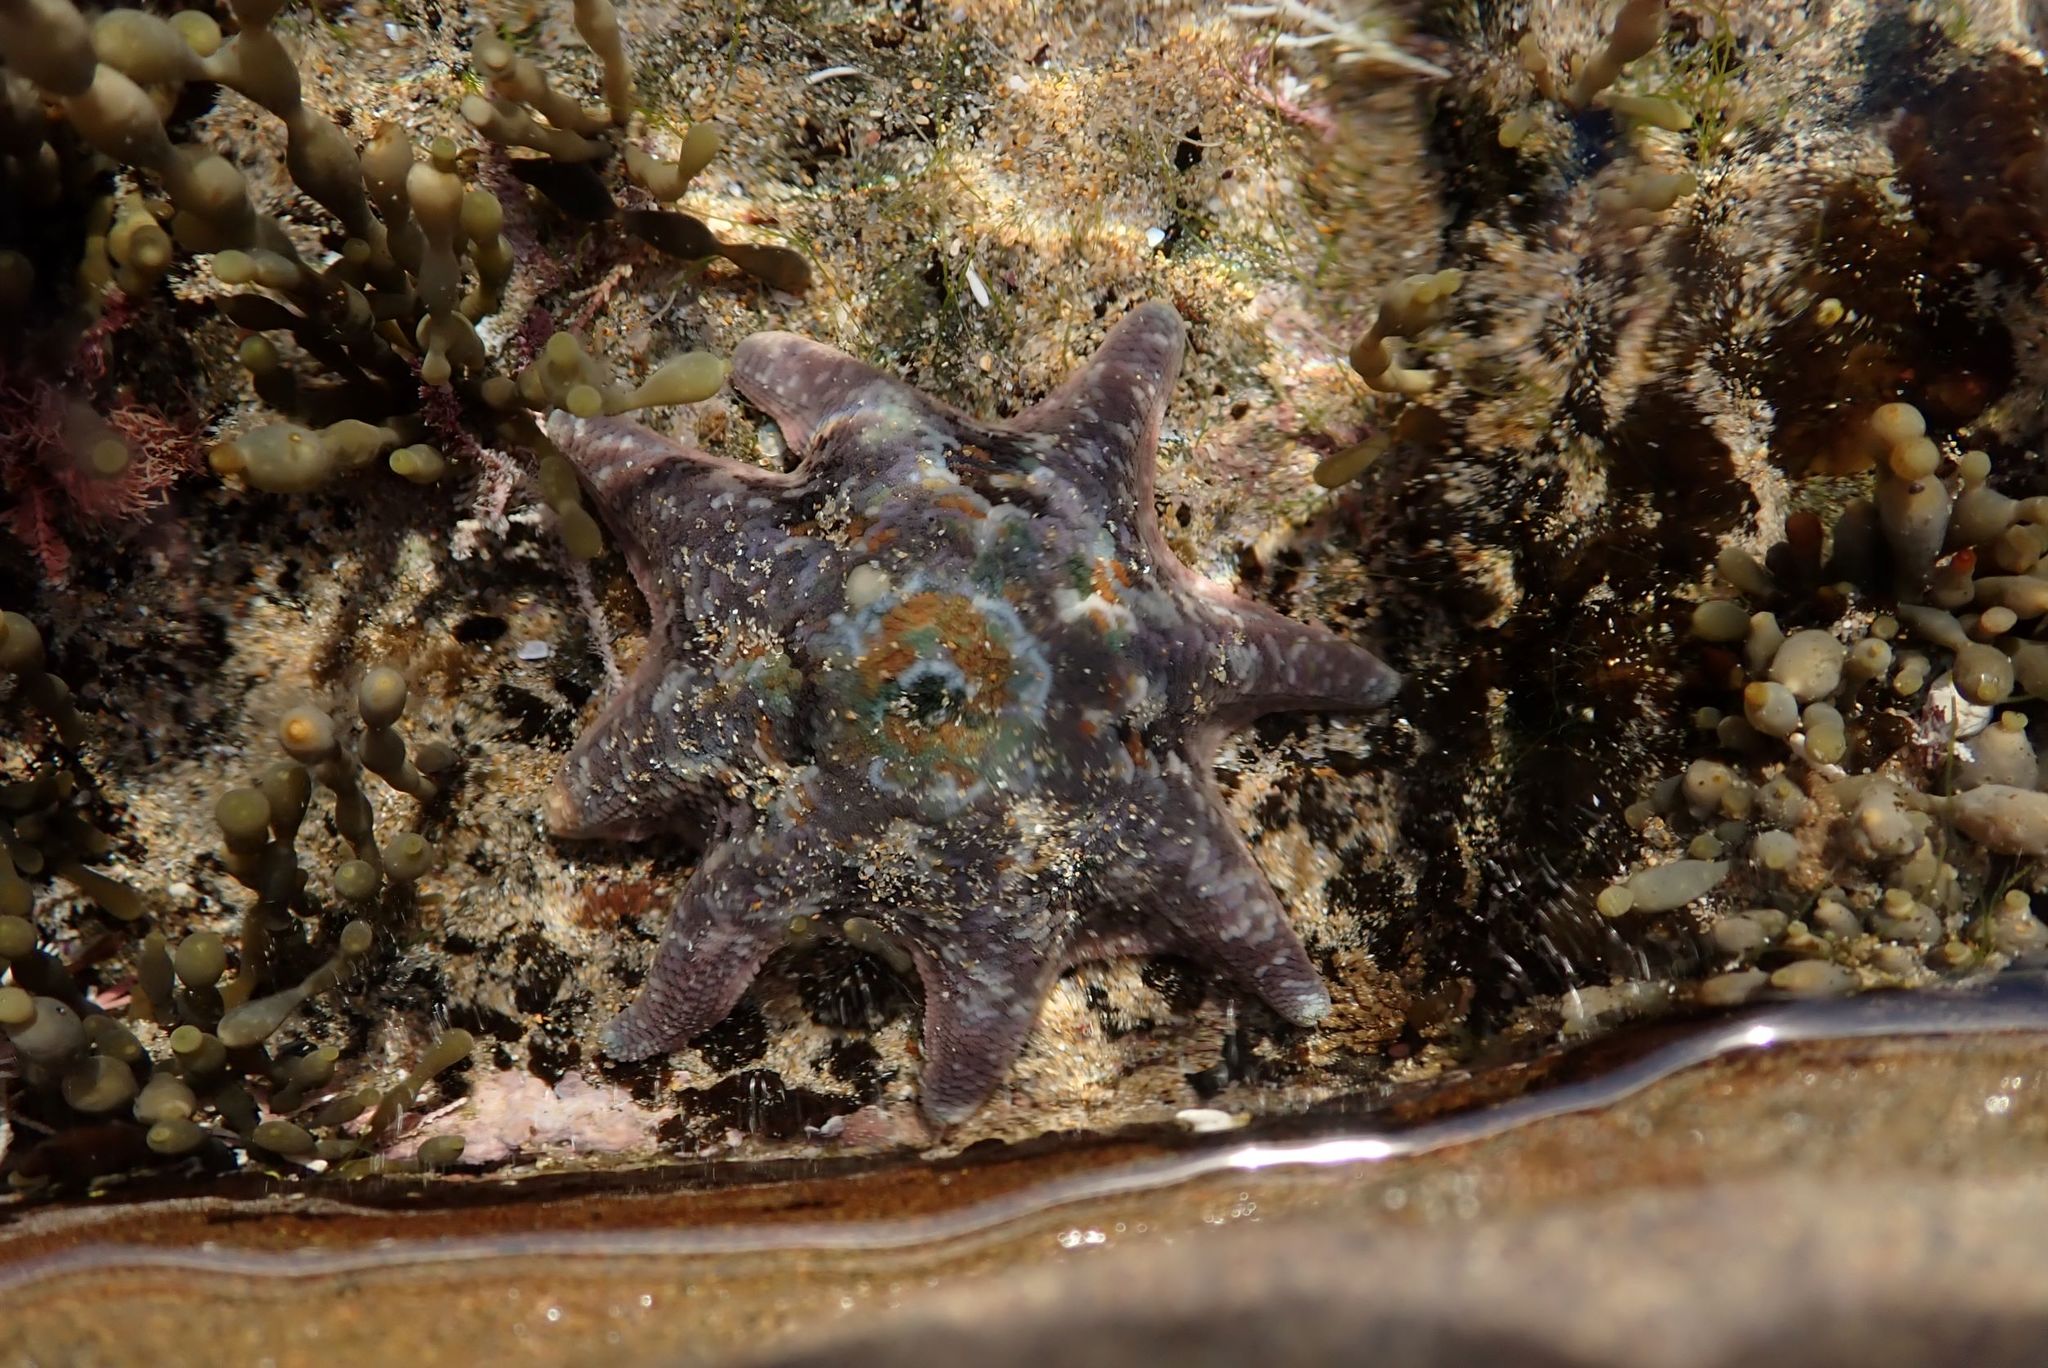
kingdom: Animalia
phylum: Echinodermata
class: Asteroidea
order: Valvatida
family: Asterinidae
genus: Meridiastra
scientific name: Meridiastra calcar
